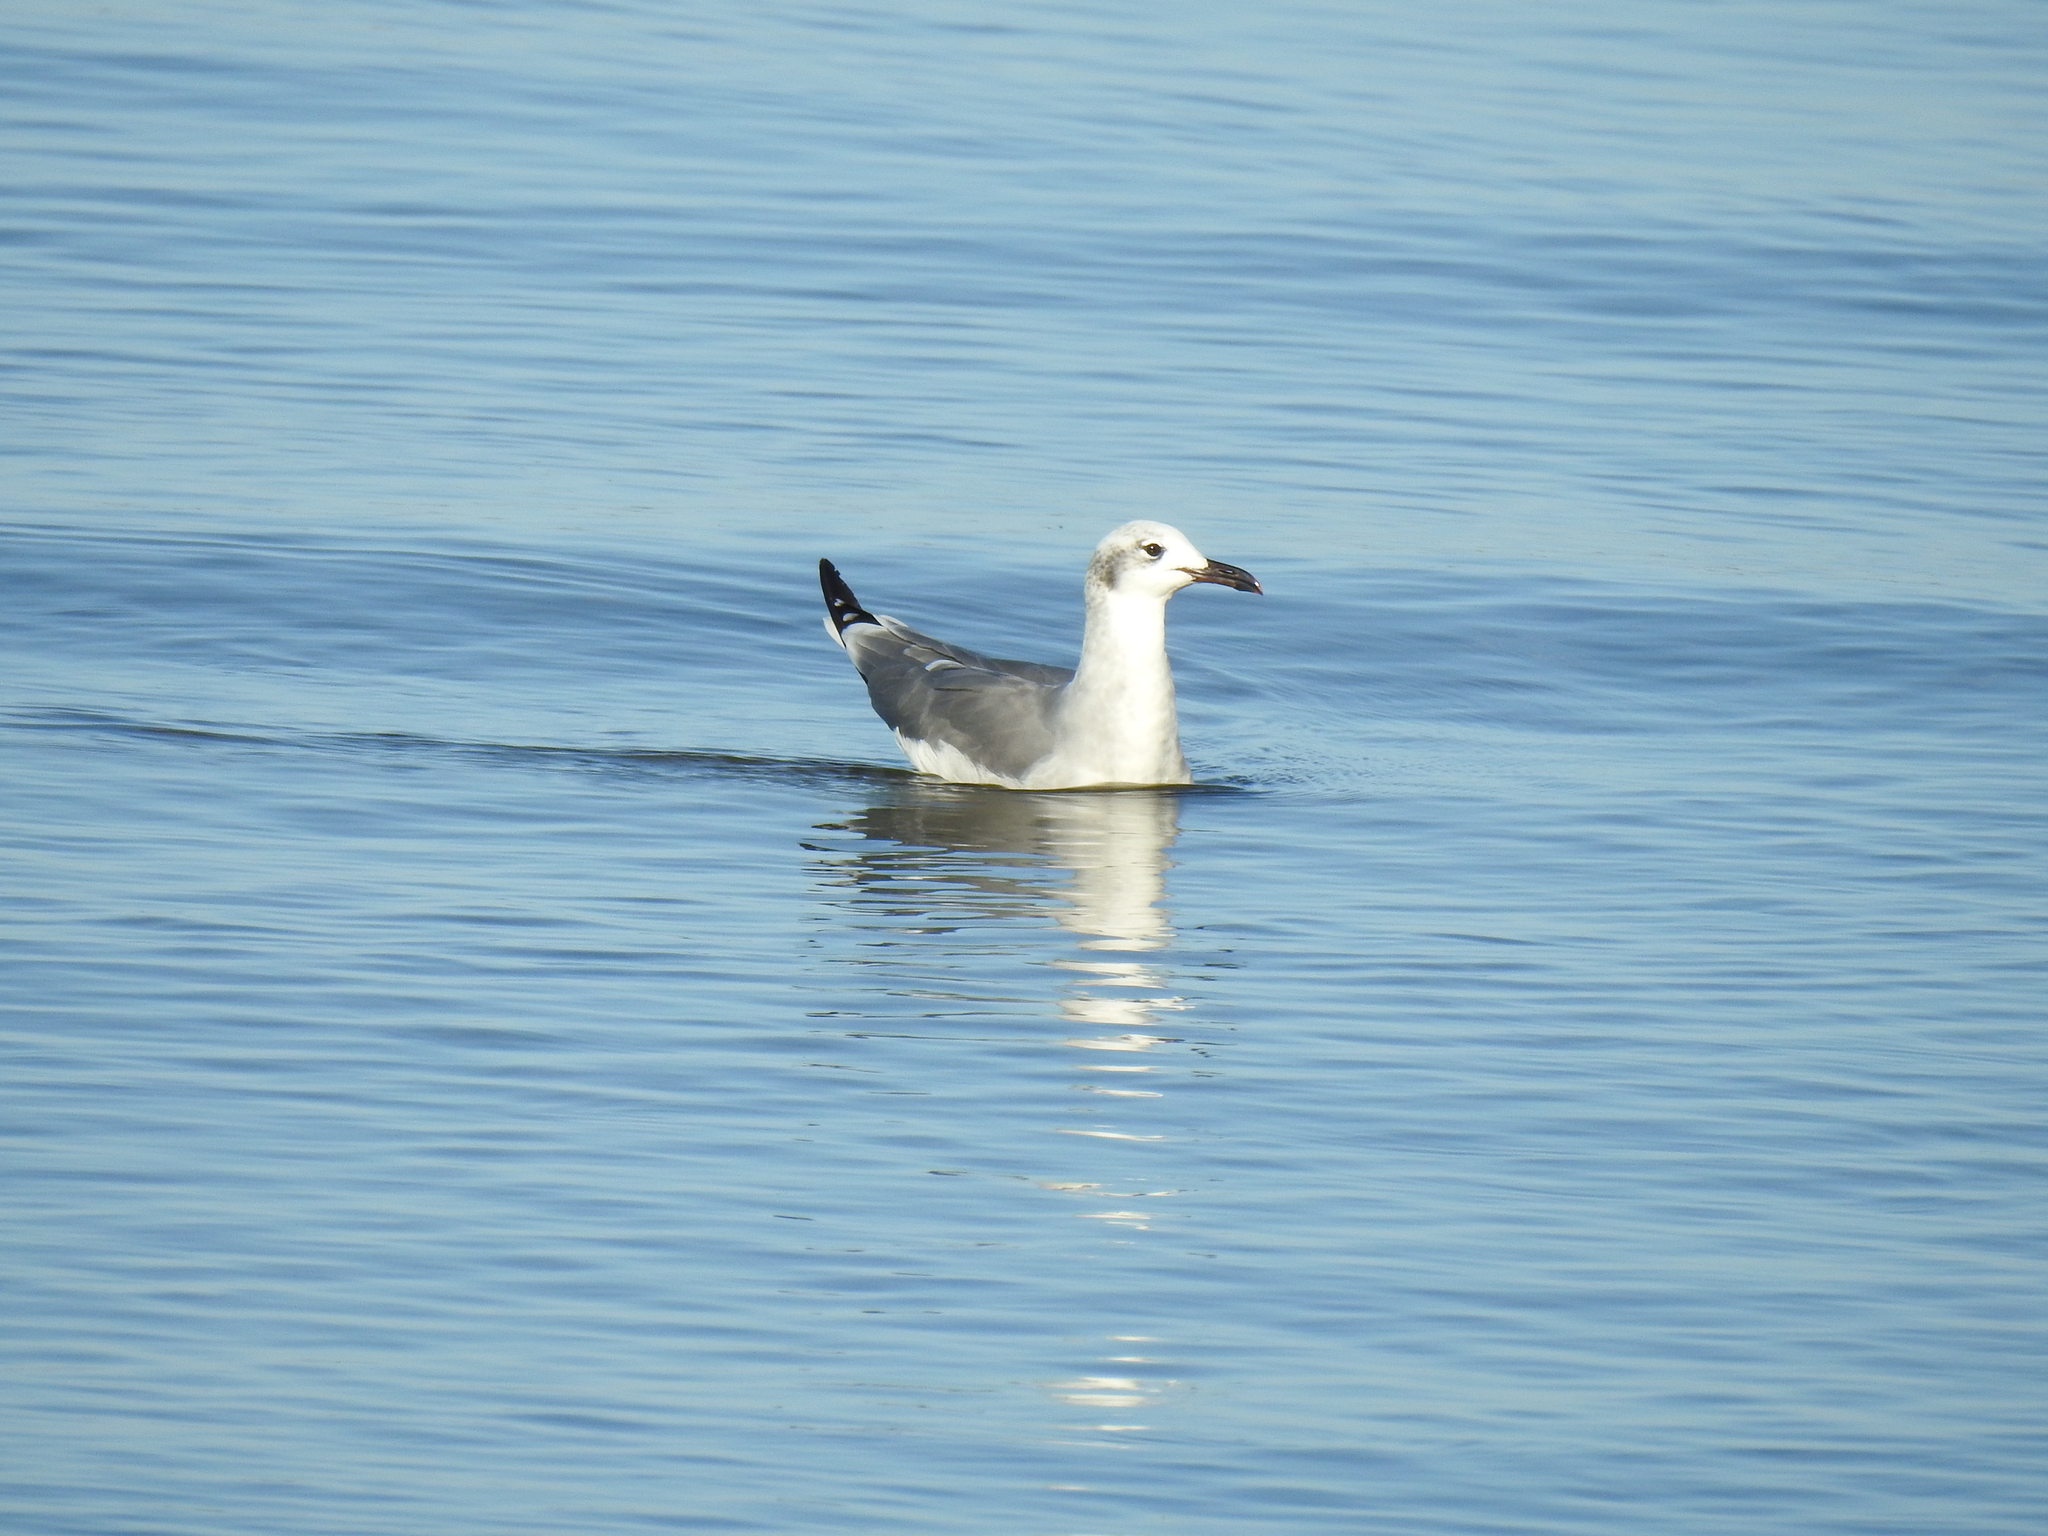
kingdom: Animalia
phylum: Chordata
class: Aves
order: Charadriiformes
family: Laridae
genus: Leucophaeus
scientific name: Leucophaeus atricilla
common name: Laughing gull
